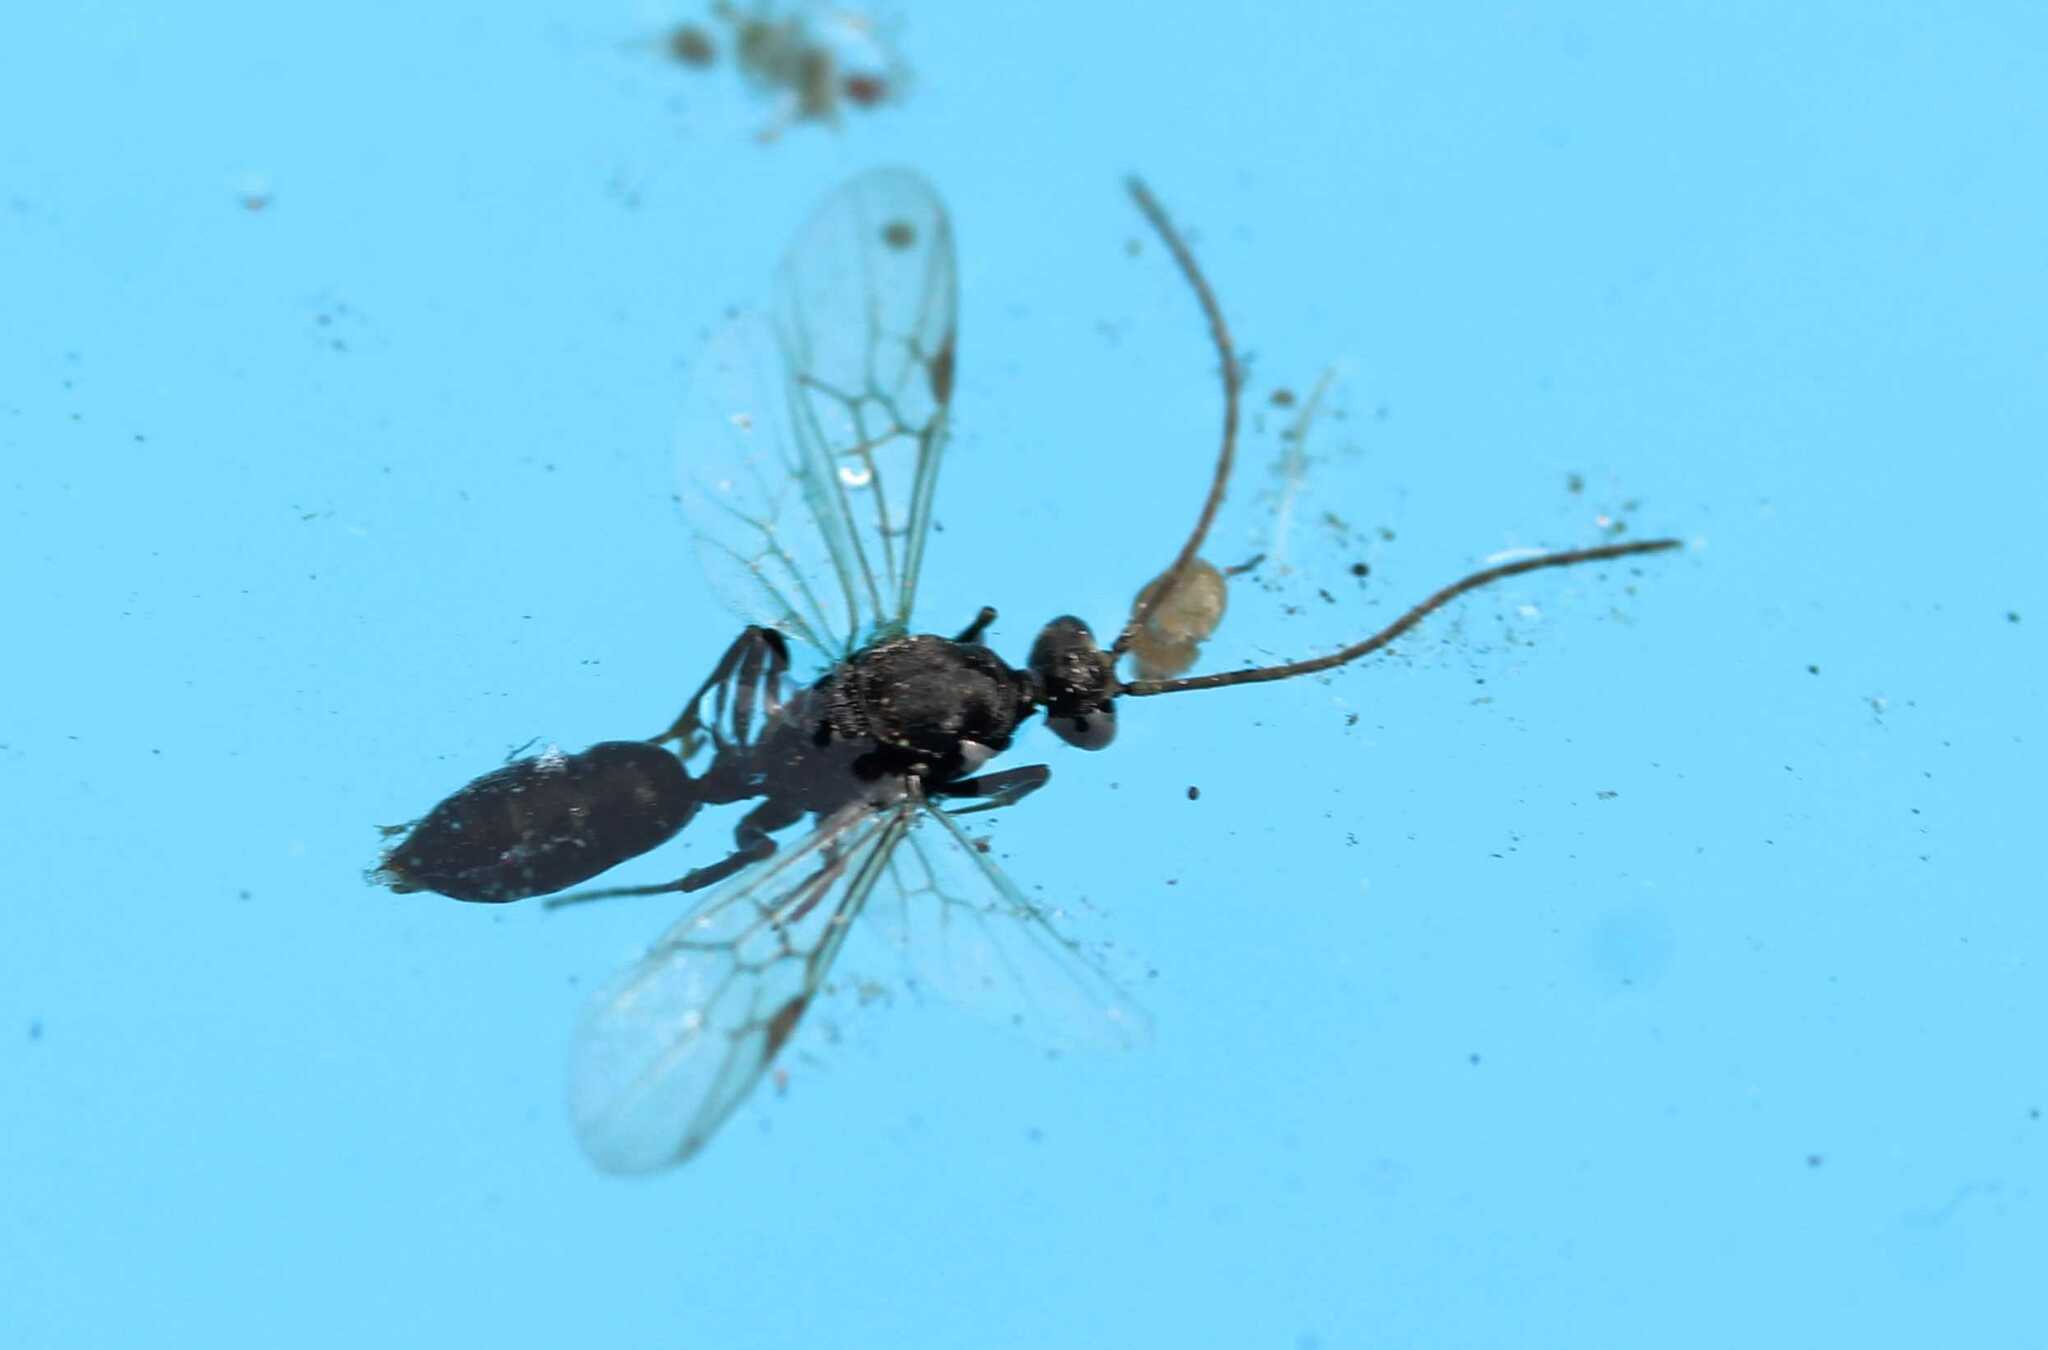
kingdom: Animalia
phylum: Arthropoda
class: Insecta
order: Hymenoptera
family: Formicidae
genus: Odontomachus
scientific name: Odontomachus
